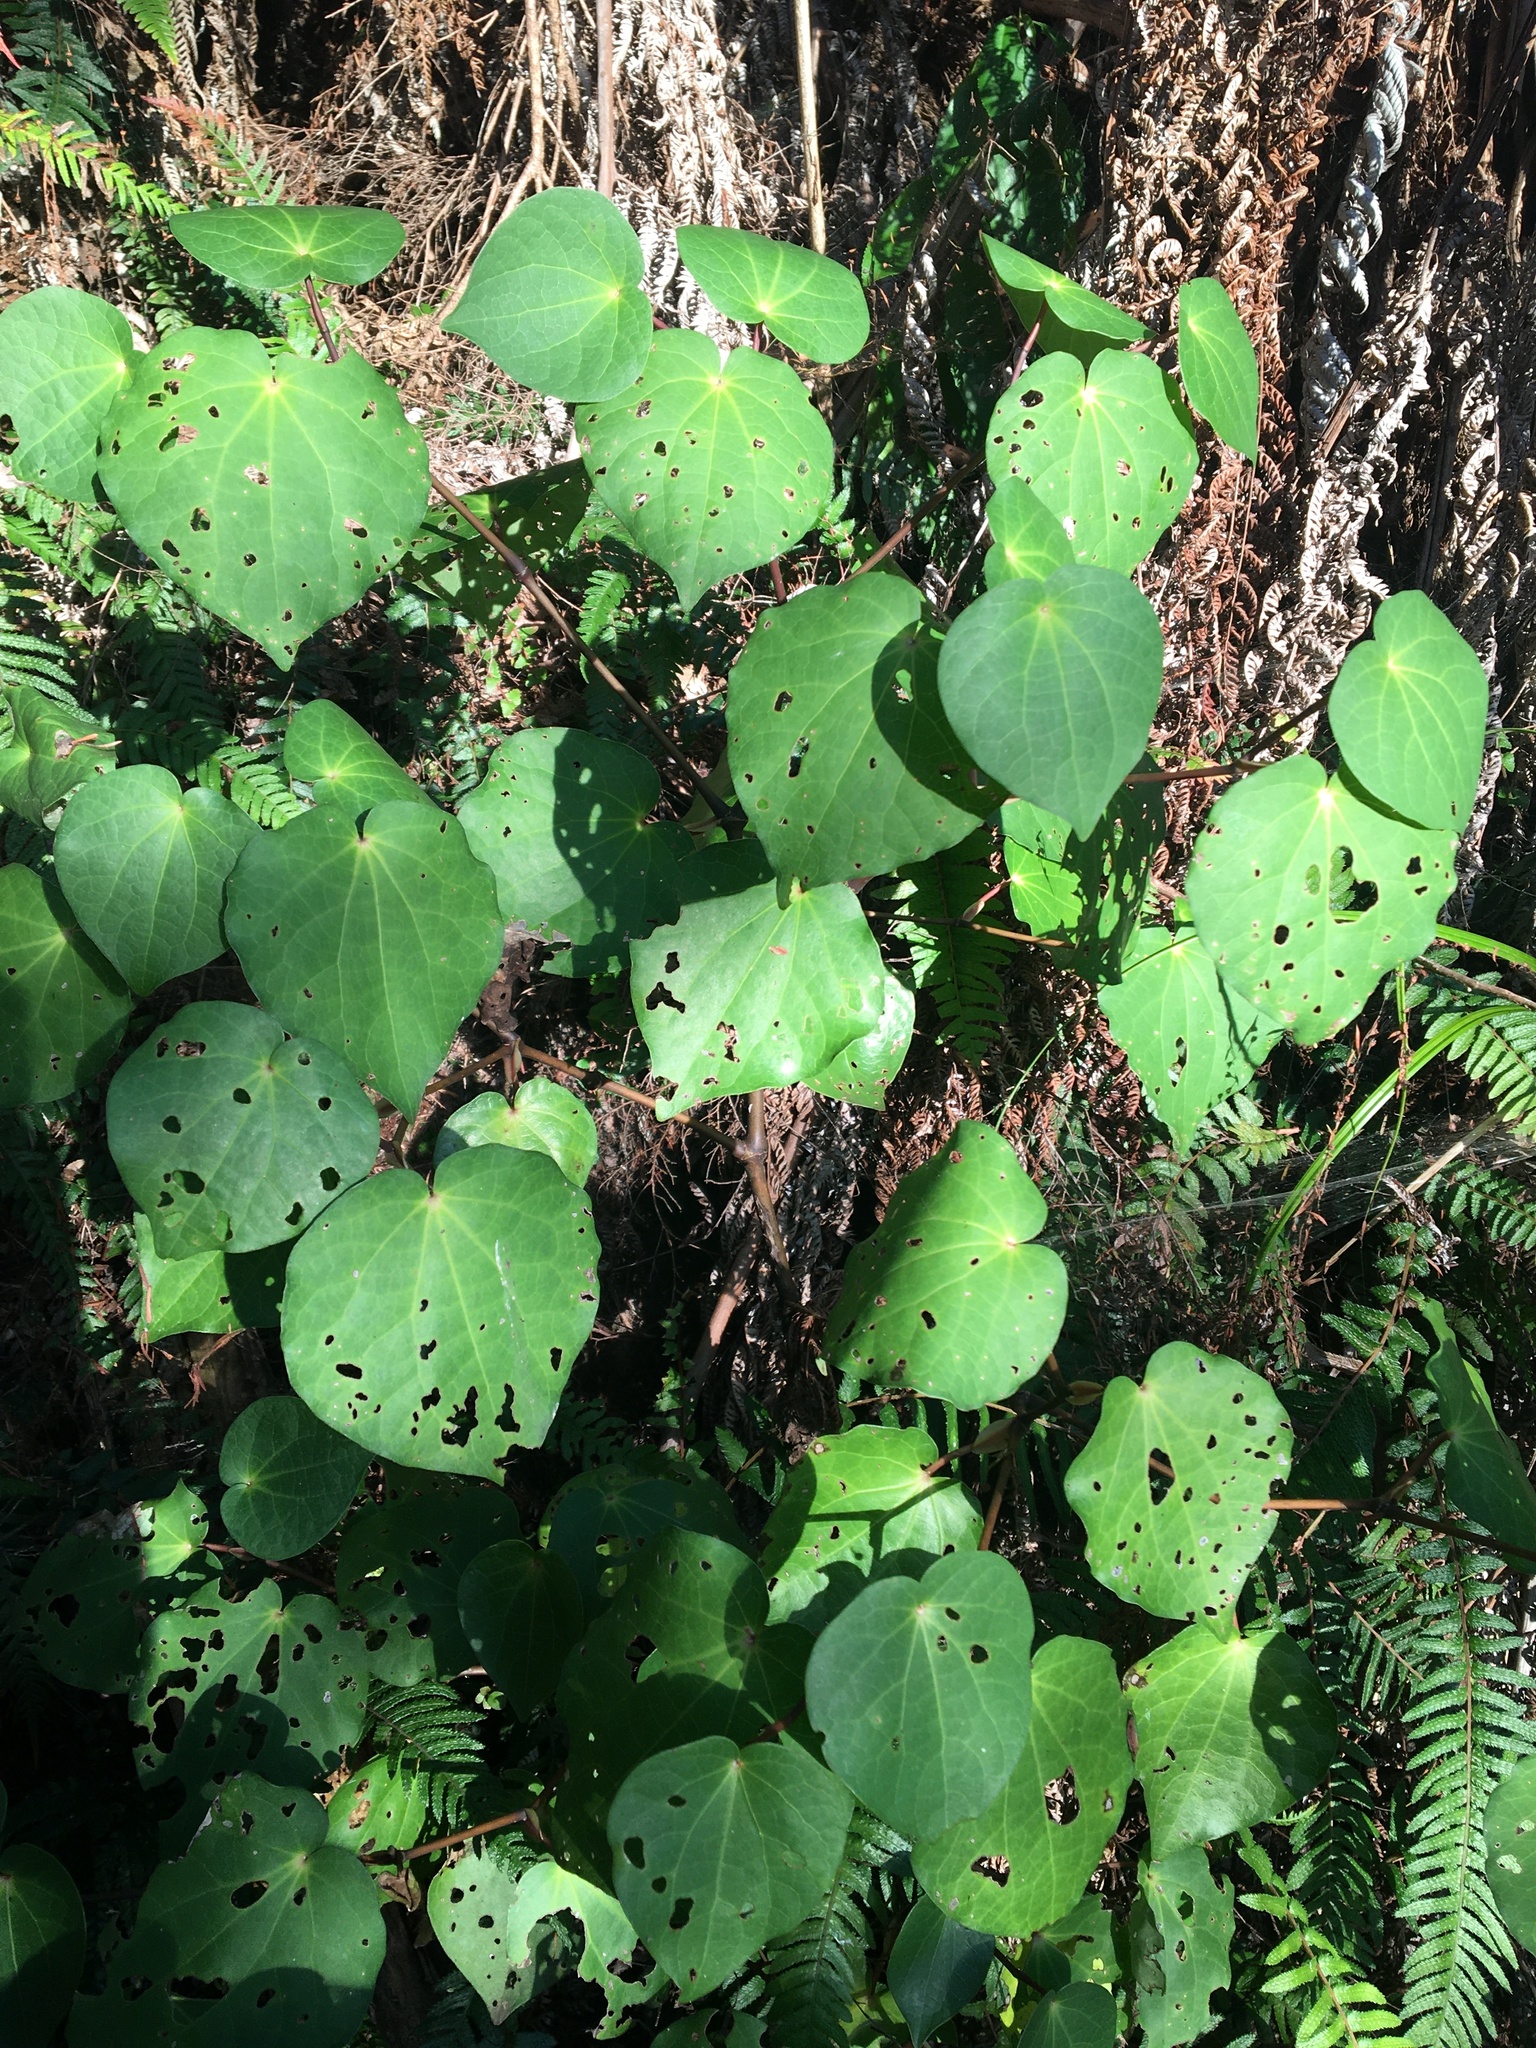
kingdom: Plantae
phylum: Tracheophyta
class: Magnoliopsida
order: Piperales
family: Piperaceae
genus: Macropiper
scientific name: Macropiper excelsum
